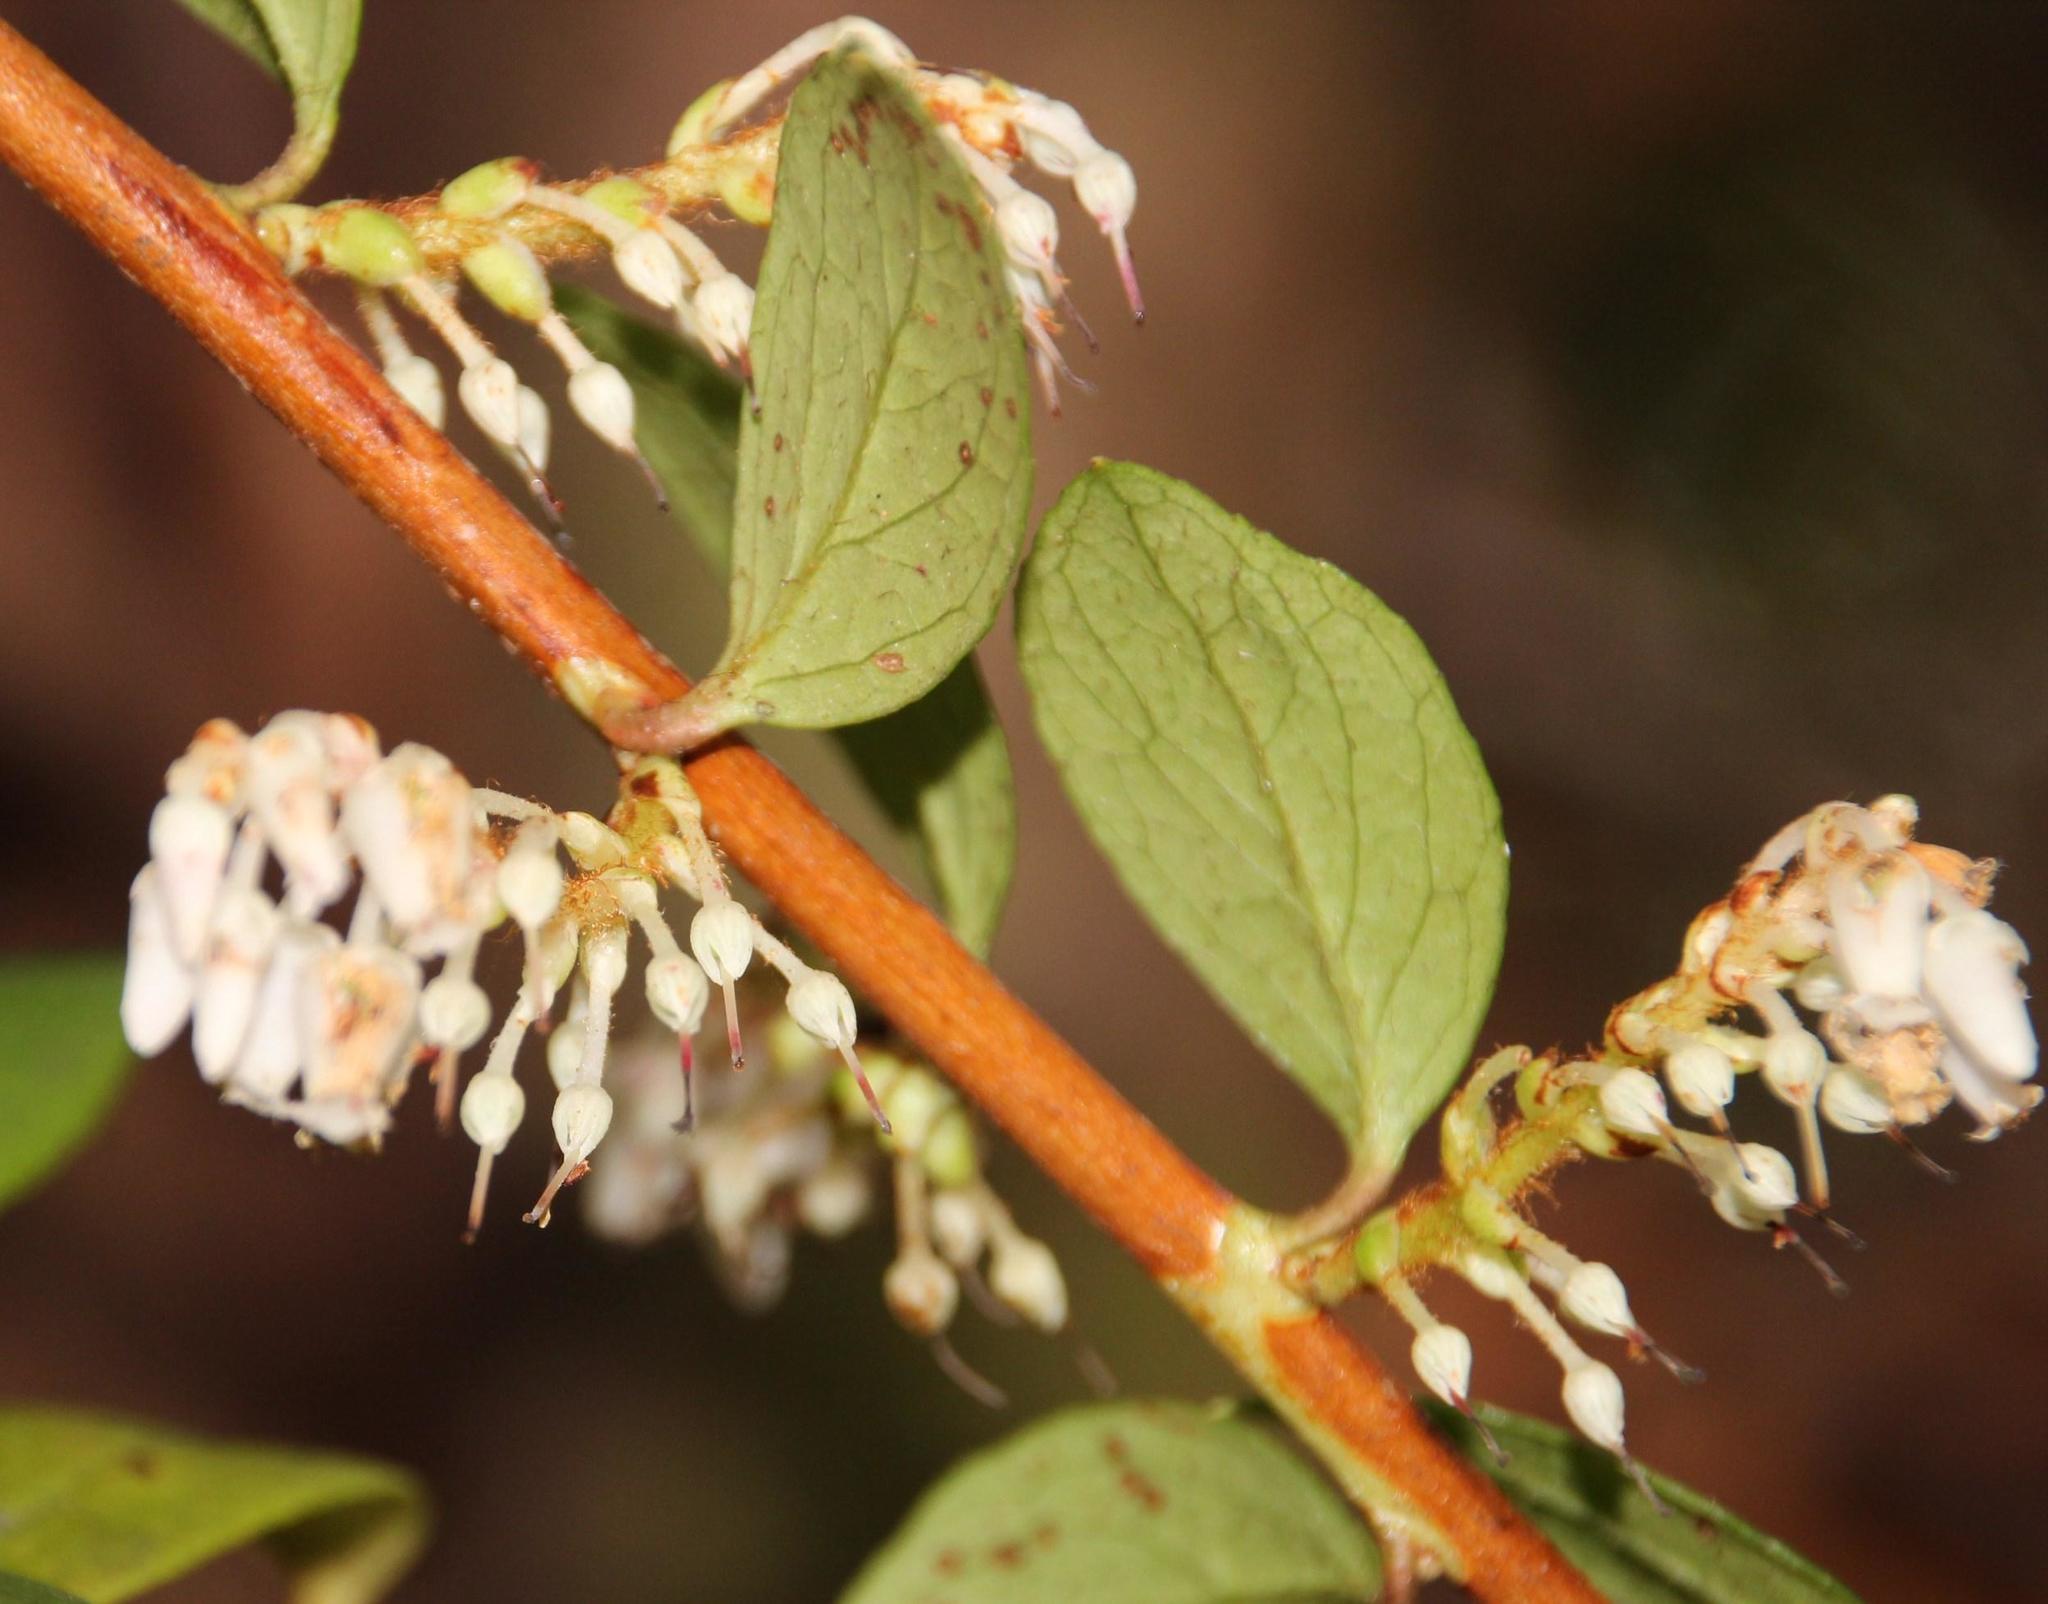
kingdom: Plantae
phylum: Tracheophyta
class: Magnoliopsida
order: Ericales
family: Ericaceae
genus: Gaultheria
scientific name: Gaultheria insana
